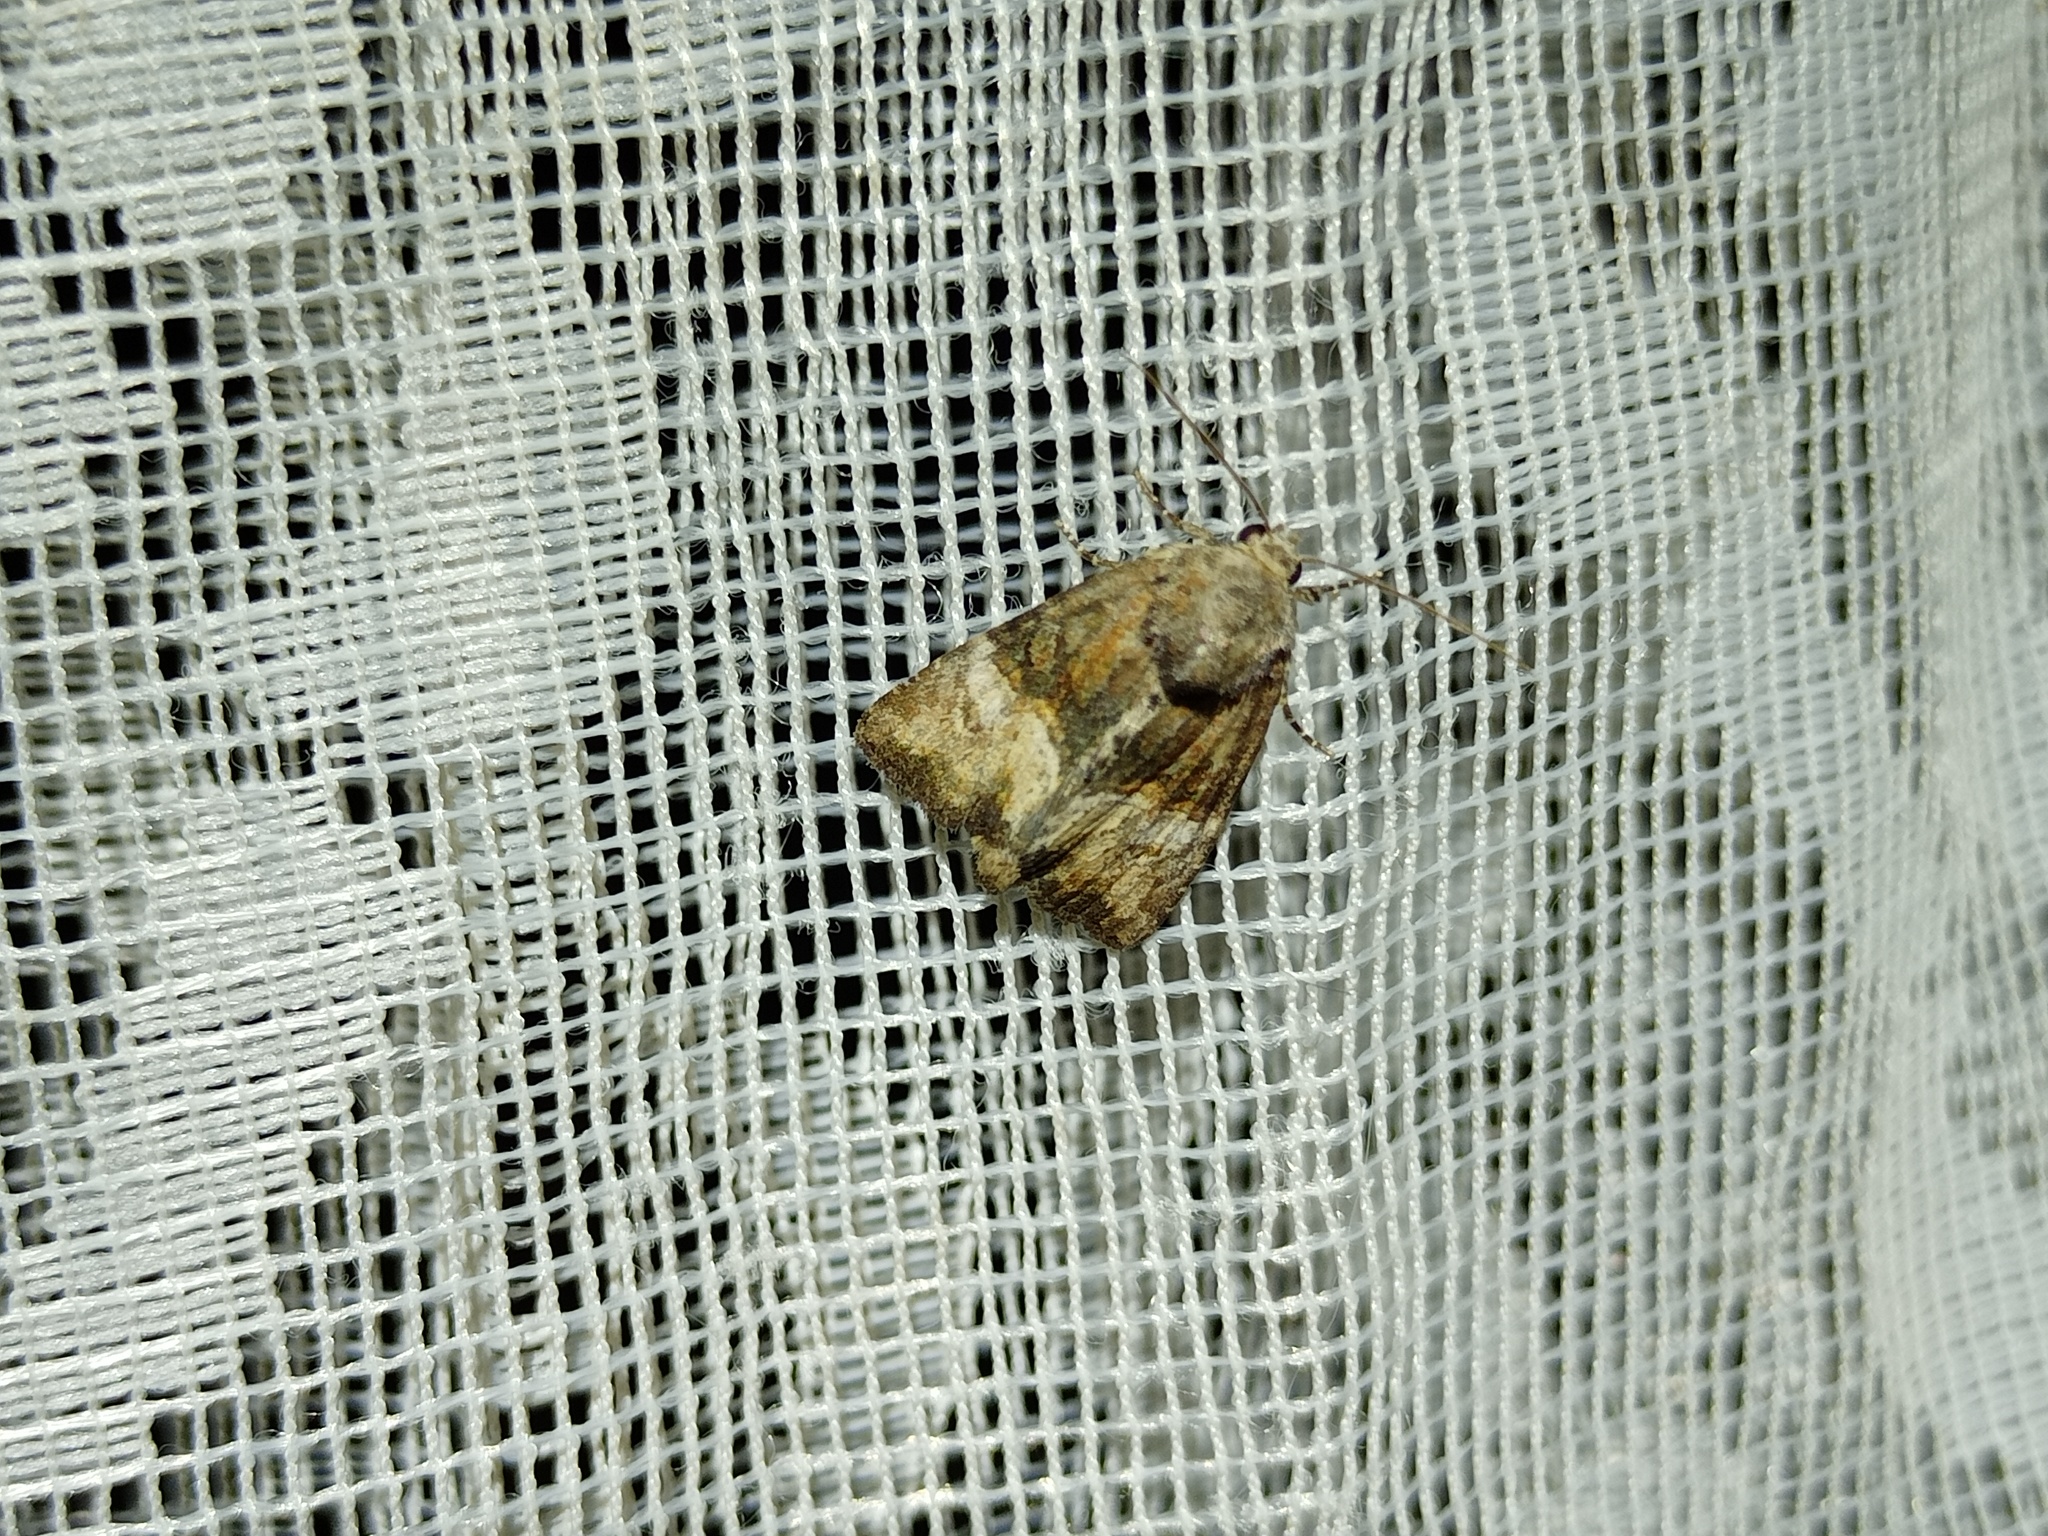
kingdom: Animalia
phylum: Arthropoda
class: Insecta
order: Lepidoptera
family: Noctuidae
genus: Mesoligia
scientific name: Mesoligia furuncula
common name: Cloaked minor
